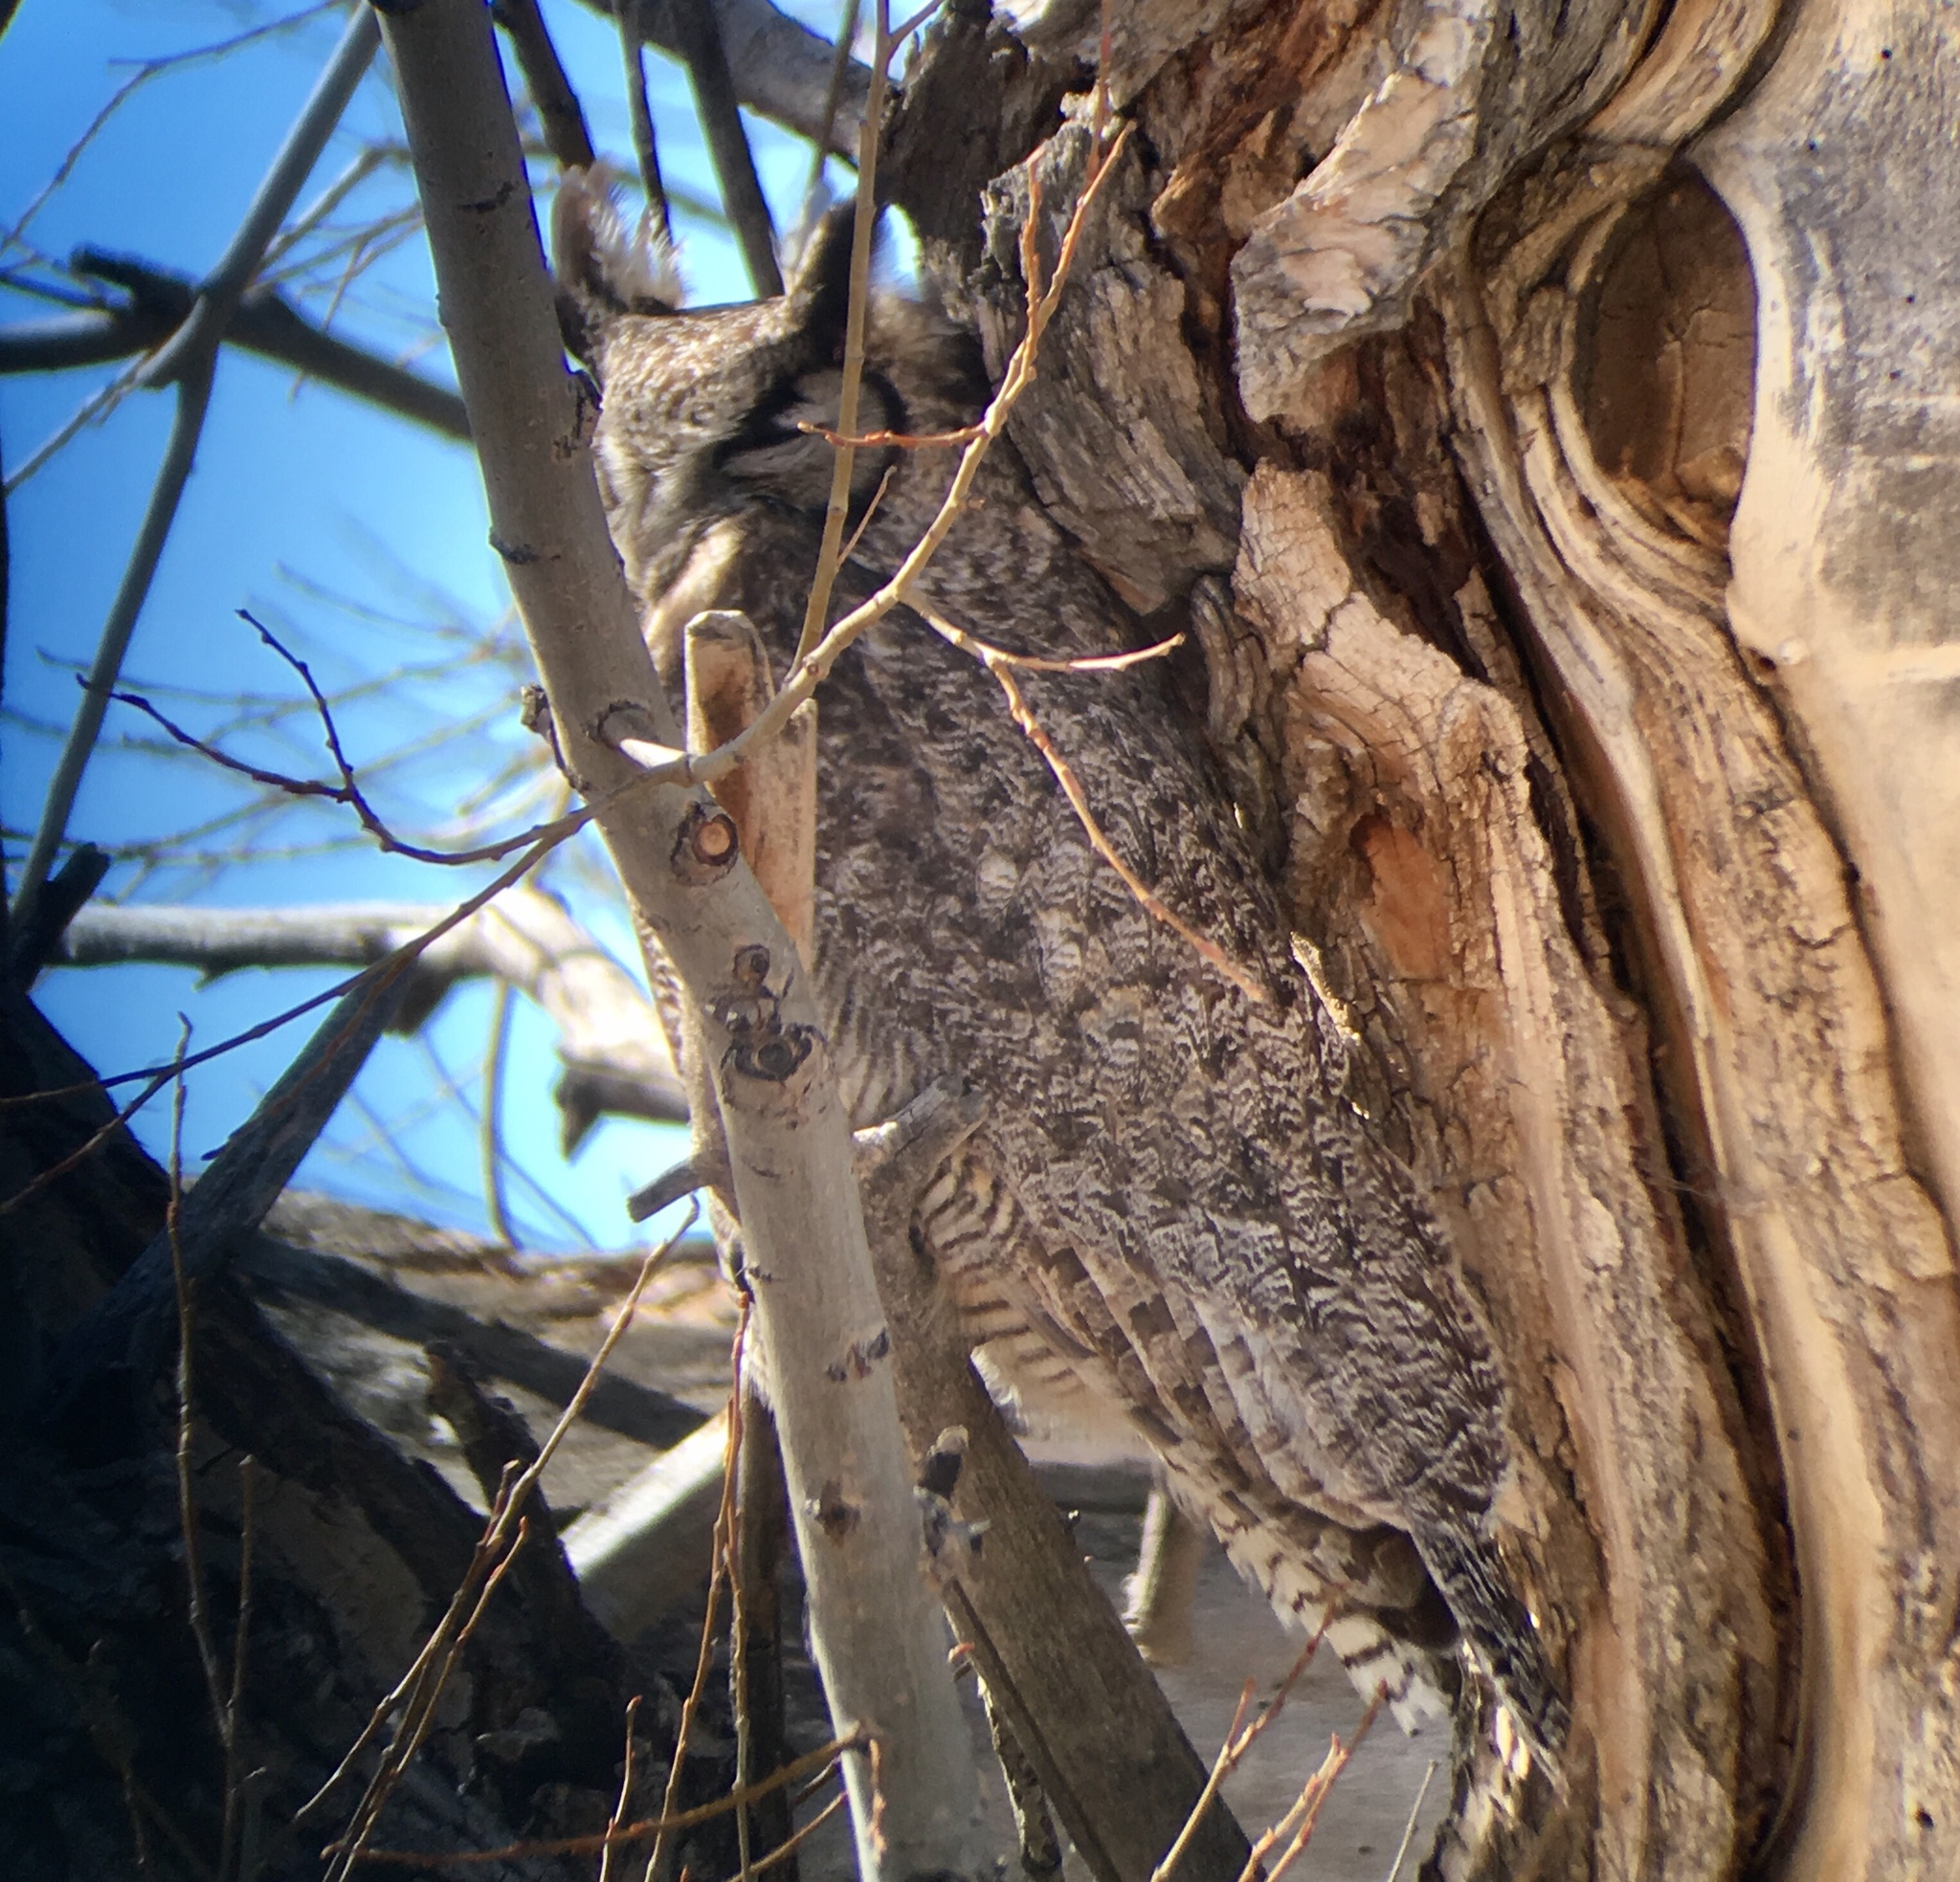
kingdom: Animalia
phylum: Chordata
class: Aves
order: Strigiformes
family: Strigidae
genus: Bubo
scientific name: Bubo virginianus
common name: Great horned owl
